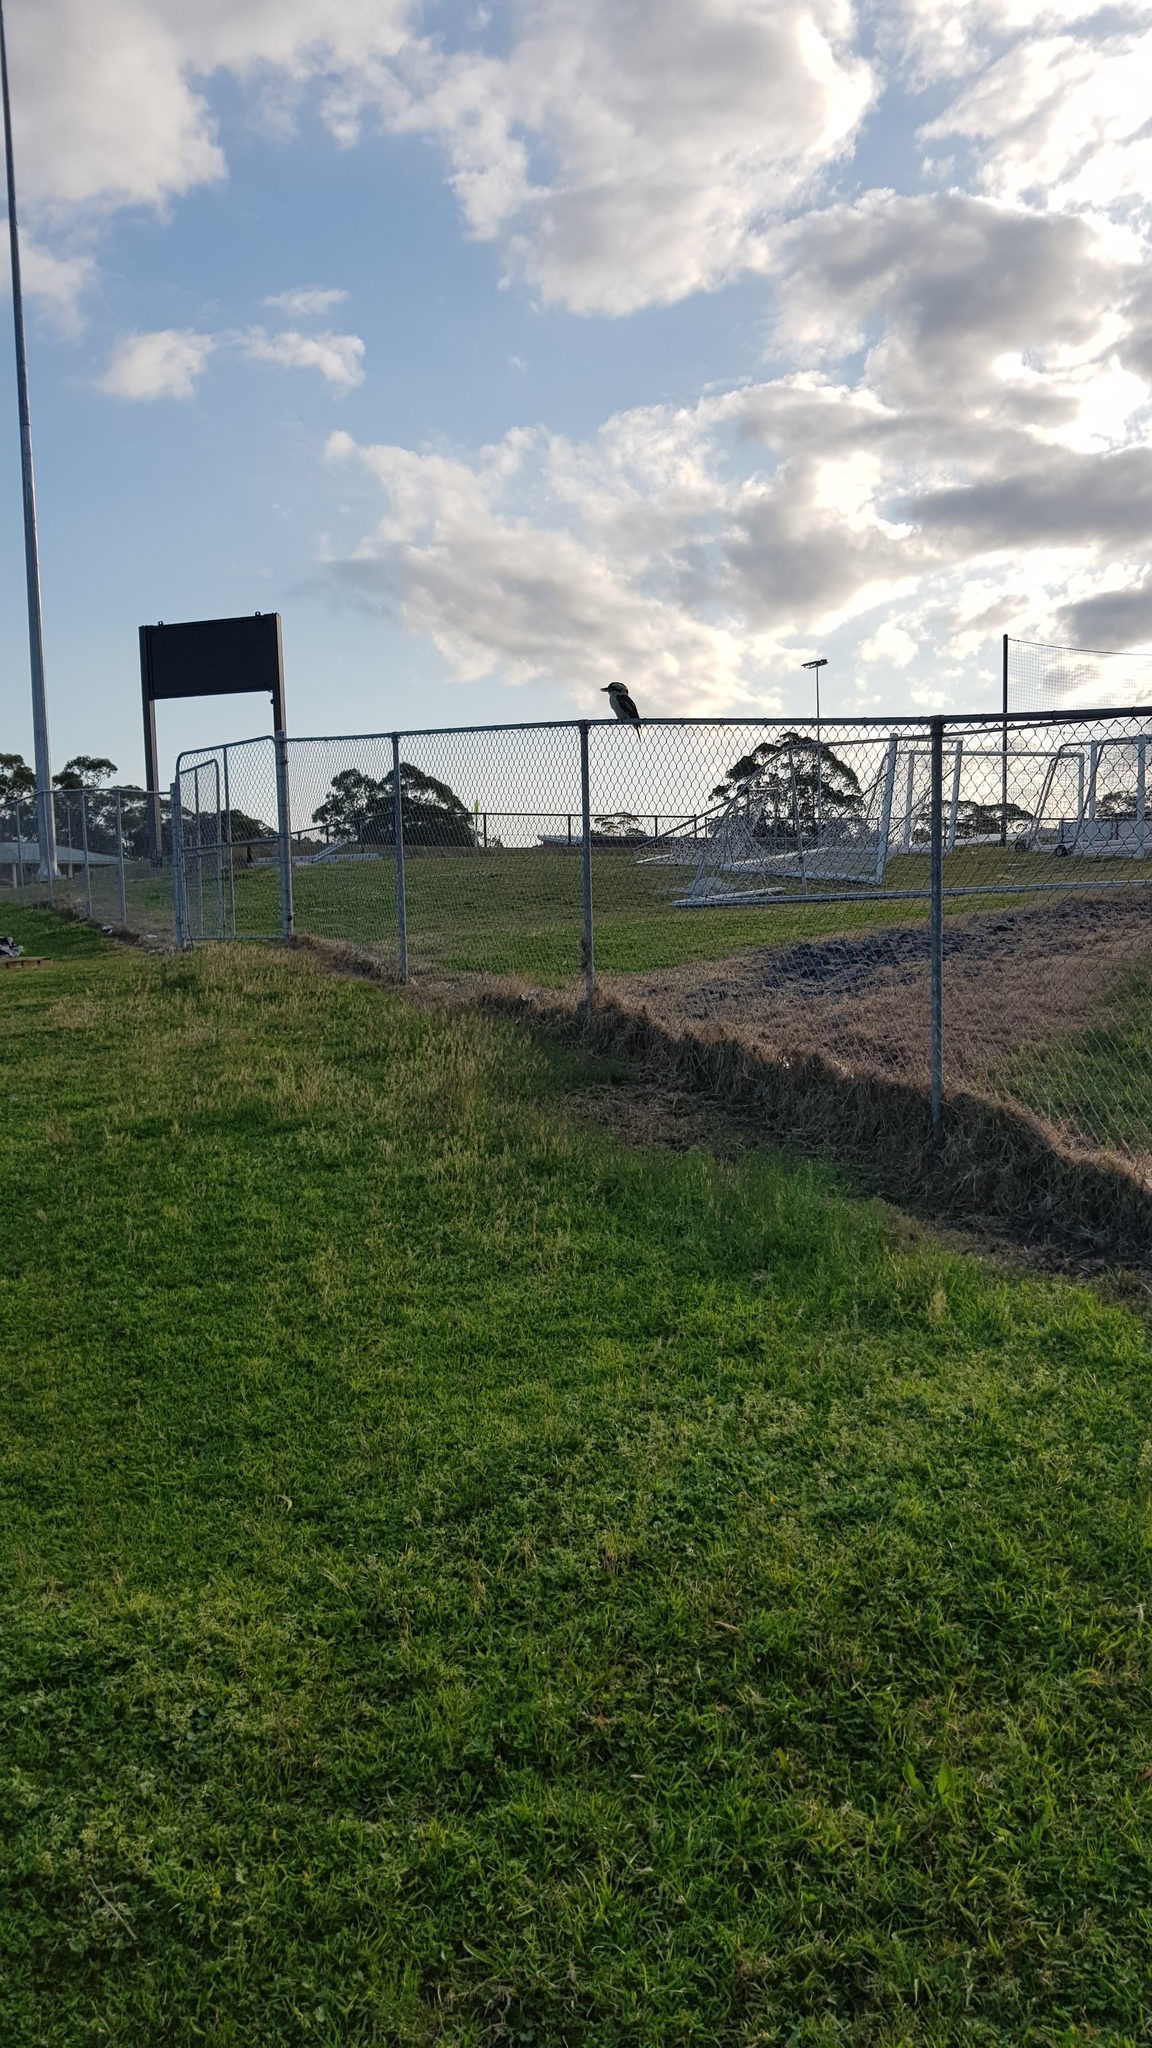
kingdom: Animalia
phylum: Chordata
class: Aves
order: Coraciiformes
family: Alcedinidae
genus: Dacelo
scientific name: Dacelo novaeguineae
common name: Laughing kookaburra
